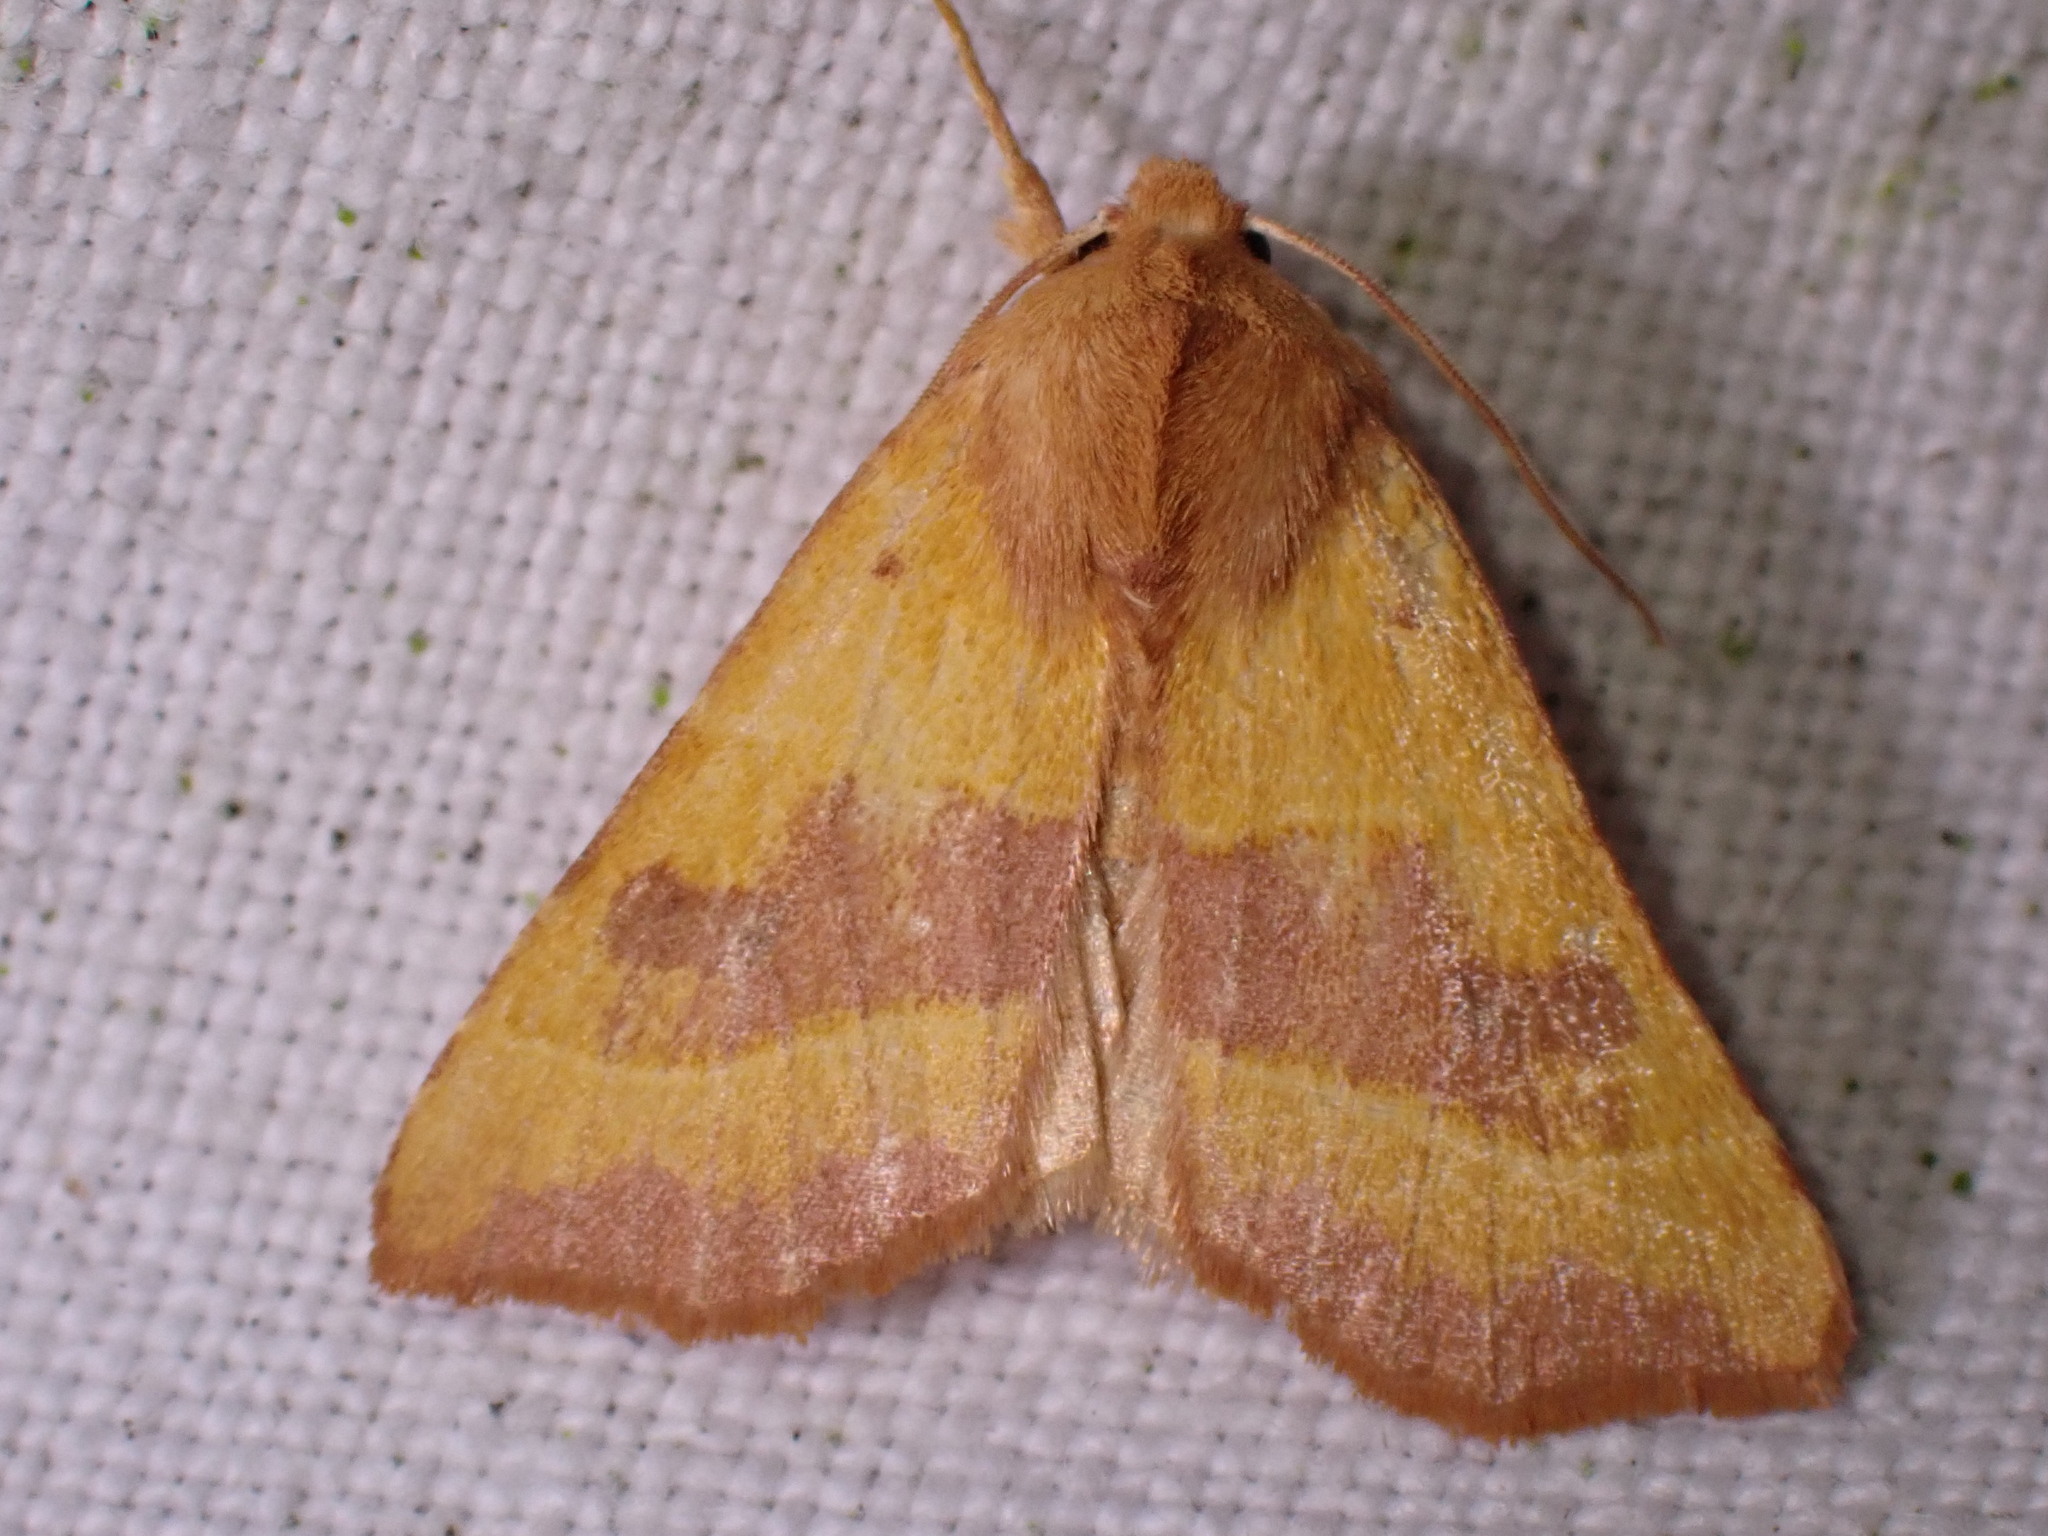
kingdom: Animalia
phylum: Arthropoda
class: Insecta
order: Lepidoptera
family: Noctuidae
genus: Atethmia
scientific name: Atethmia centrago
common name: Centre-barred sallow
